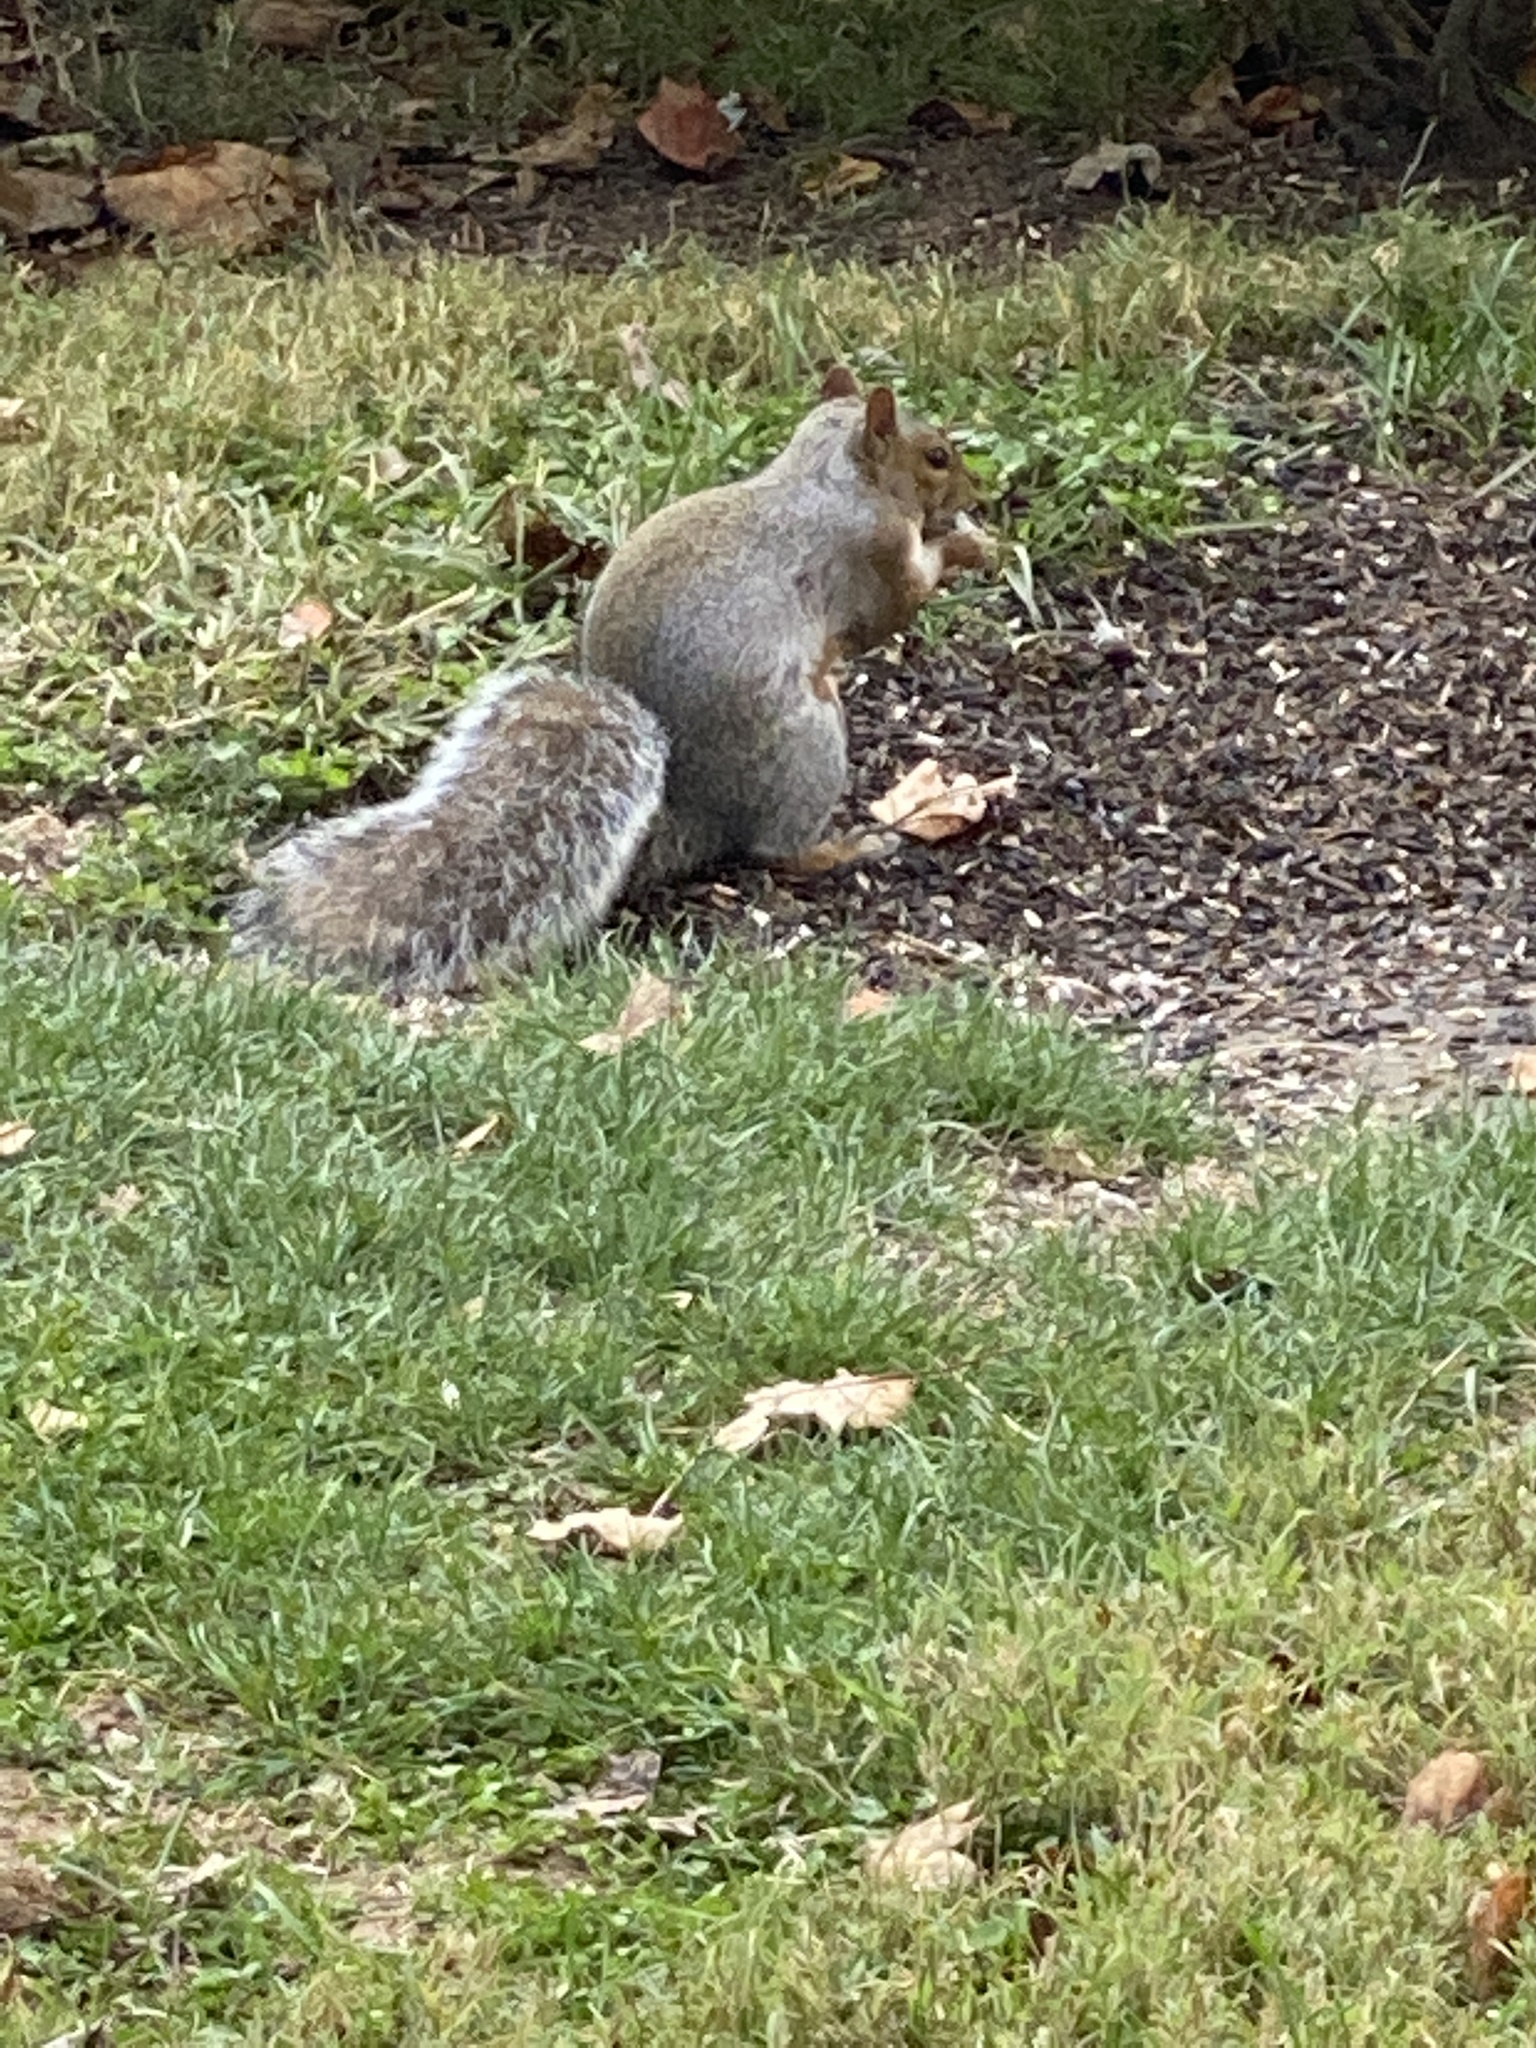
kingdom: Animalia
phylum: Chordata
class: Mammalia
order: Rodentia
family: Sciuridae
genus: Sciurus
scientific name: Sciurus carolinensis
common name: Eastern gray squirrel
